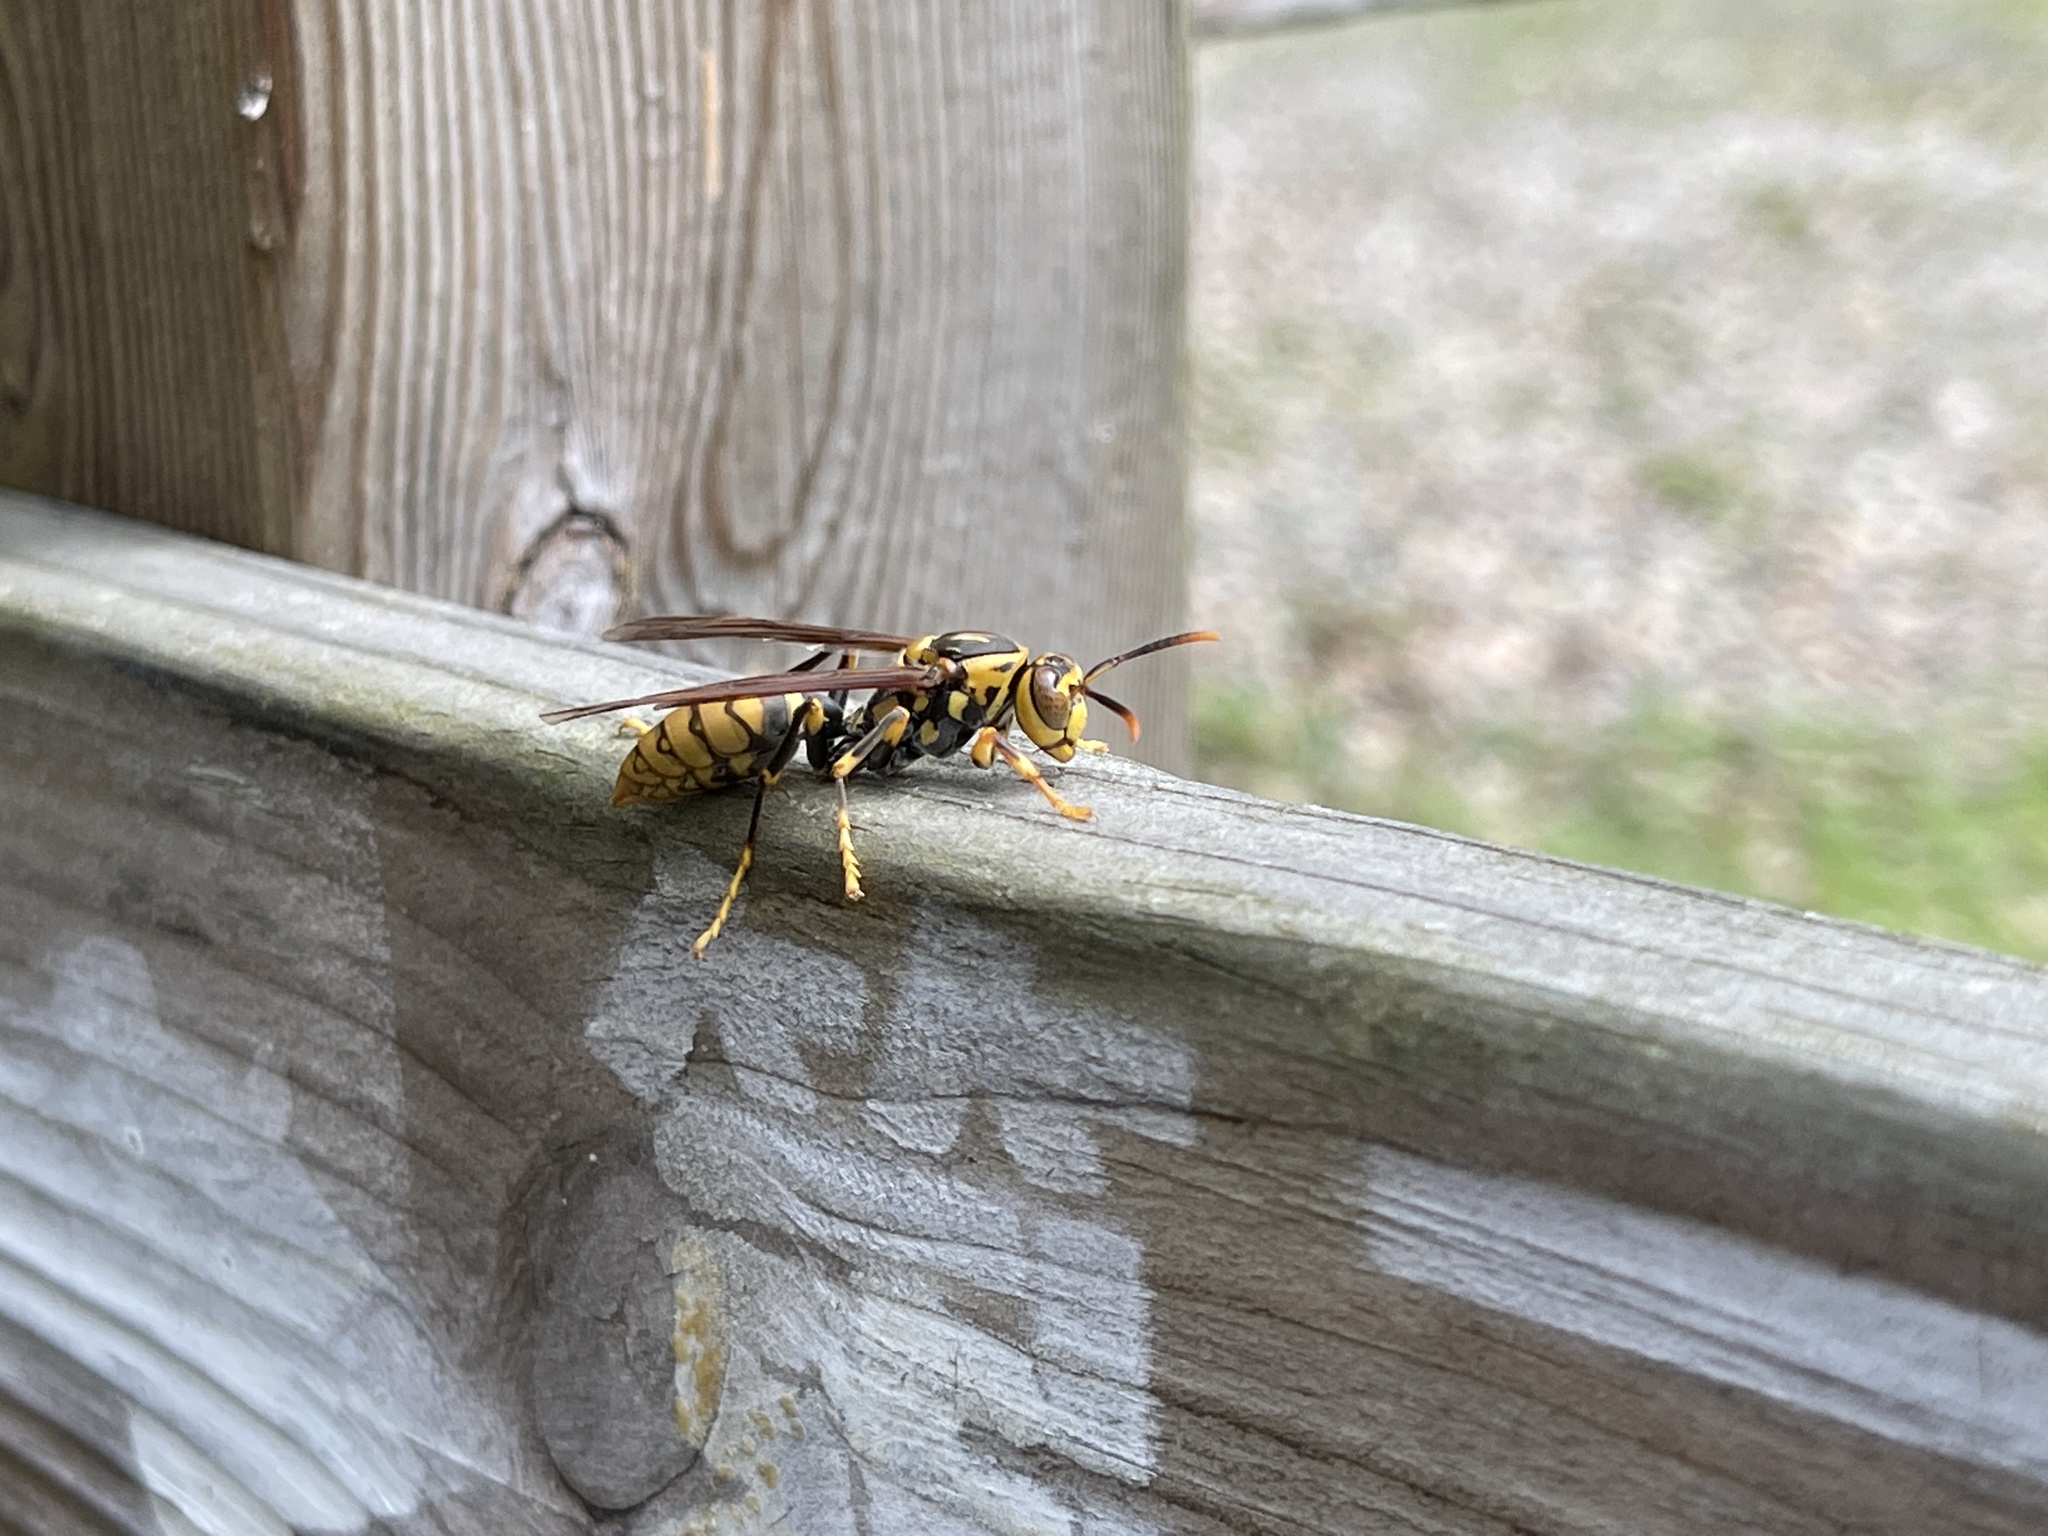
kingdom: Animalia
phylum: Arthropoda
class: Insecta
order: Hymenoptera
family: Eumenidae
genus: Polistes
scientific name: Polistes rothneyi
